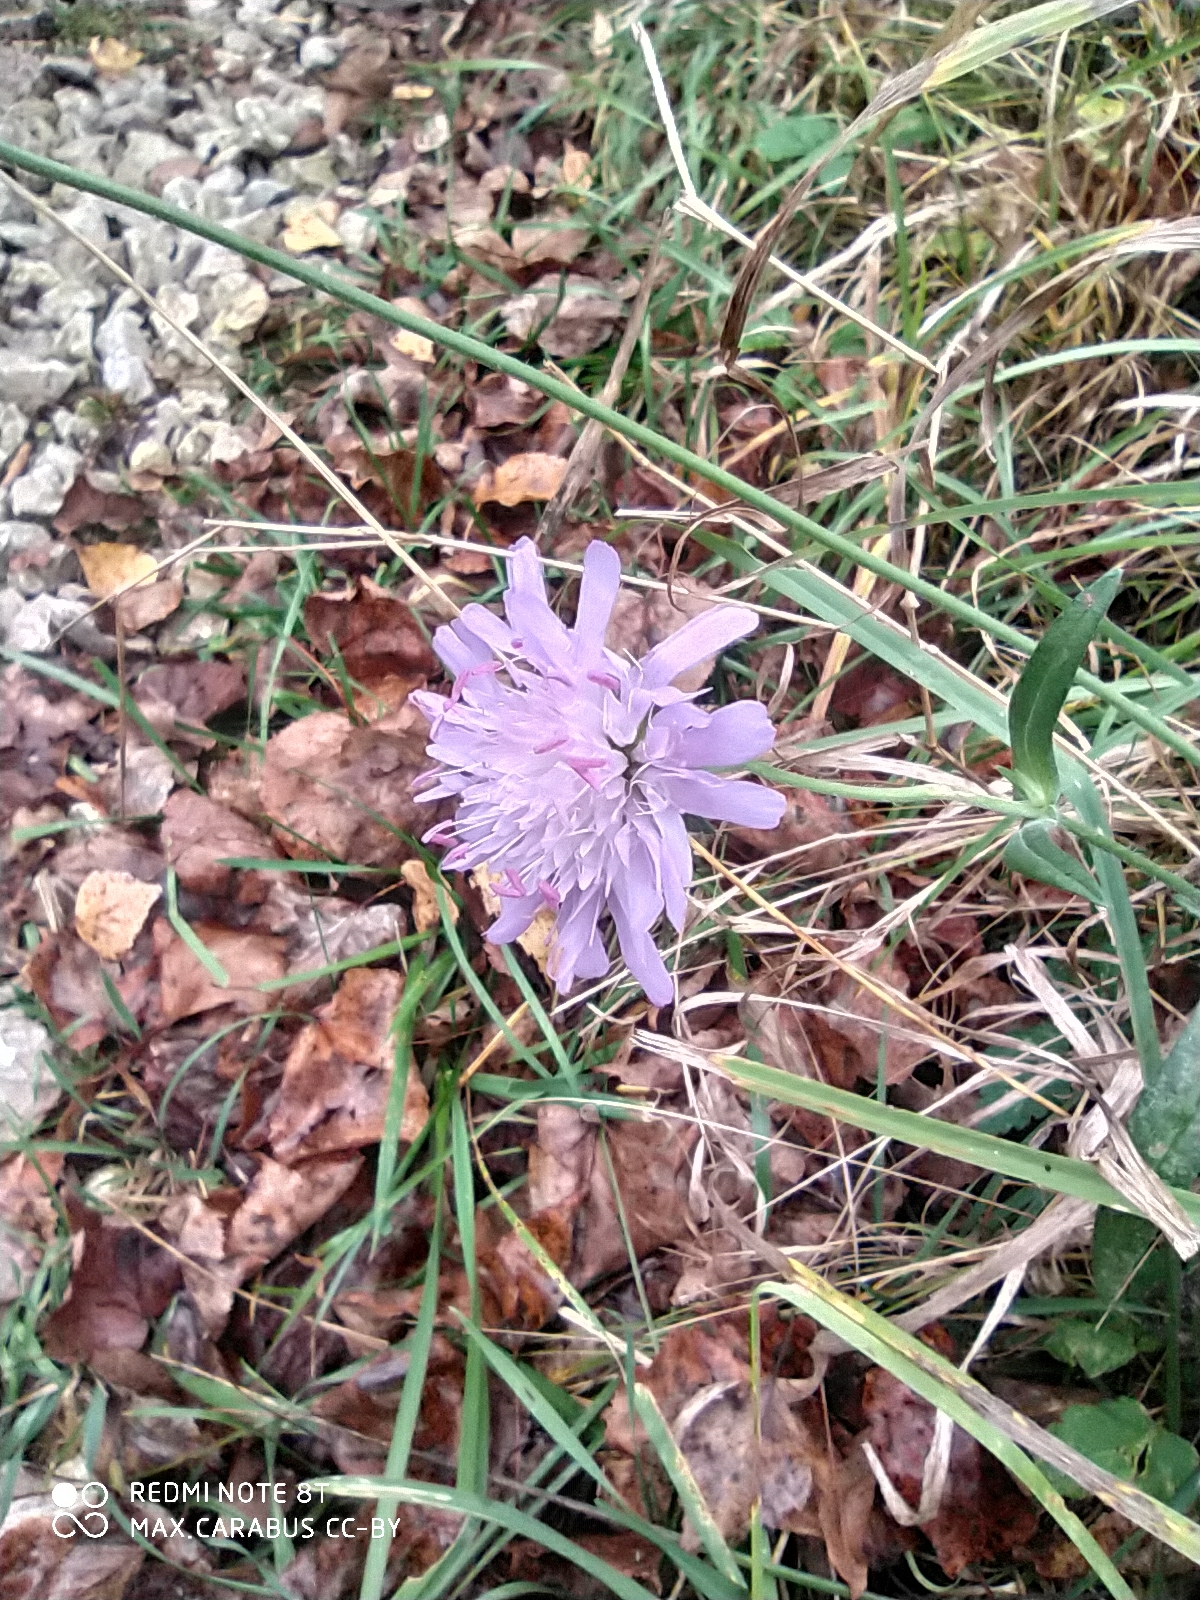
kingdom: Plantae
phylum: Tracheophyta
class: Magnoliopsida
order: Dipsacales
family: Caprifoliaceae
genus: Knautia
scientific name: Knautia arvensis
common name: Field scabiosa
